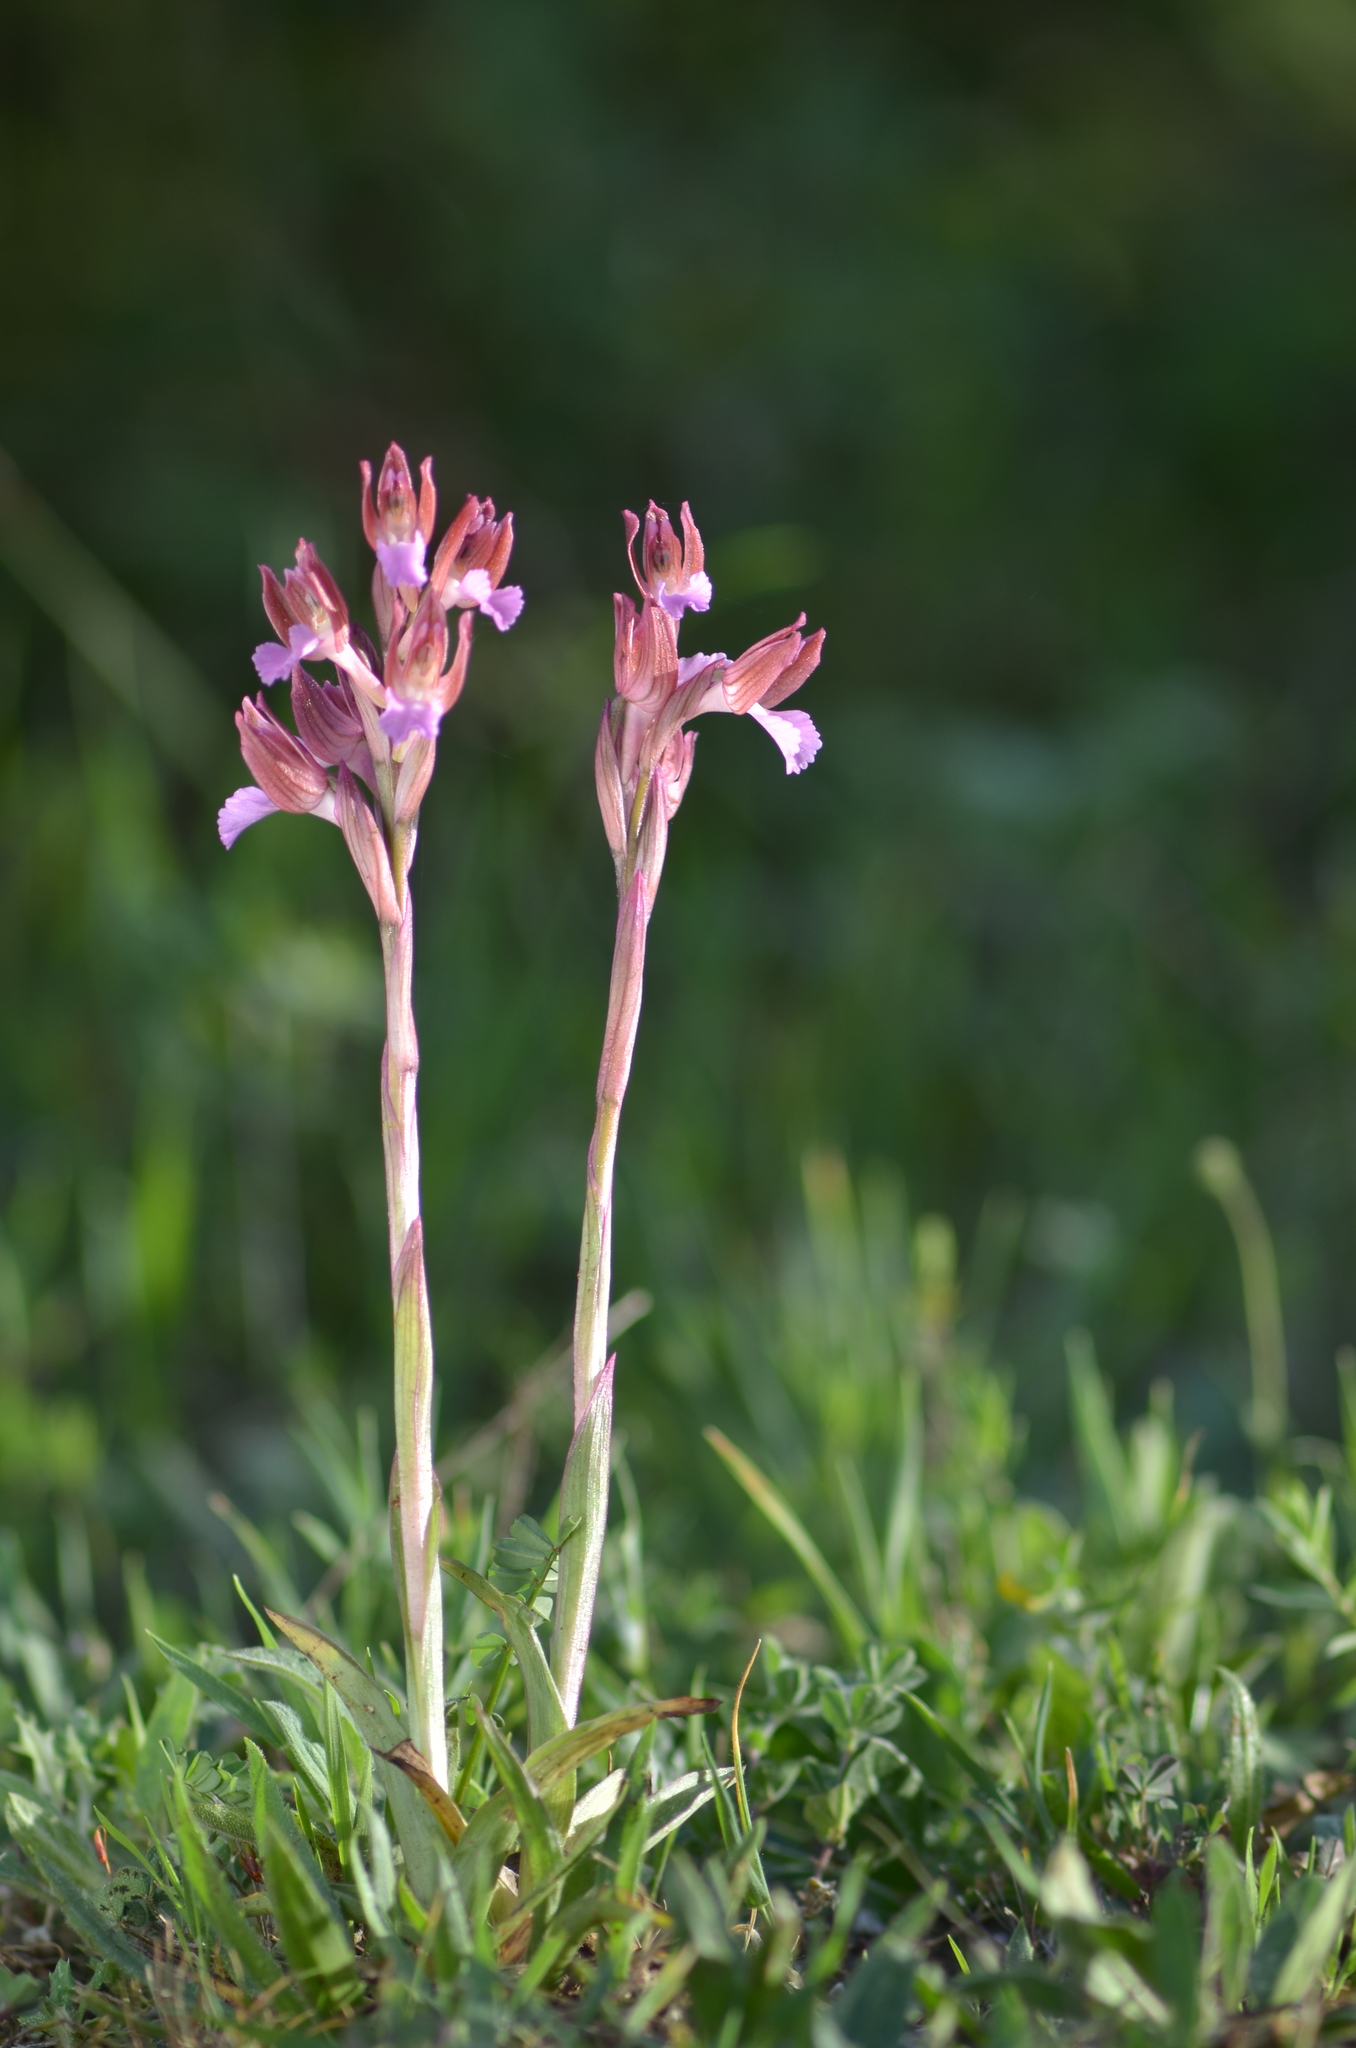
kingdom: Plantae
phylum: Tracheophyta
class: Liliopsida
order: Asparagales
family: Orchidaceae
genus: Anacamptis
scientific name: Anacamptis papilionacea
